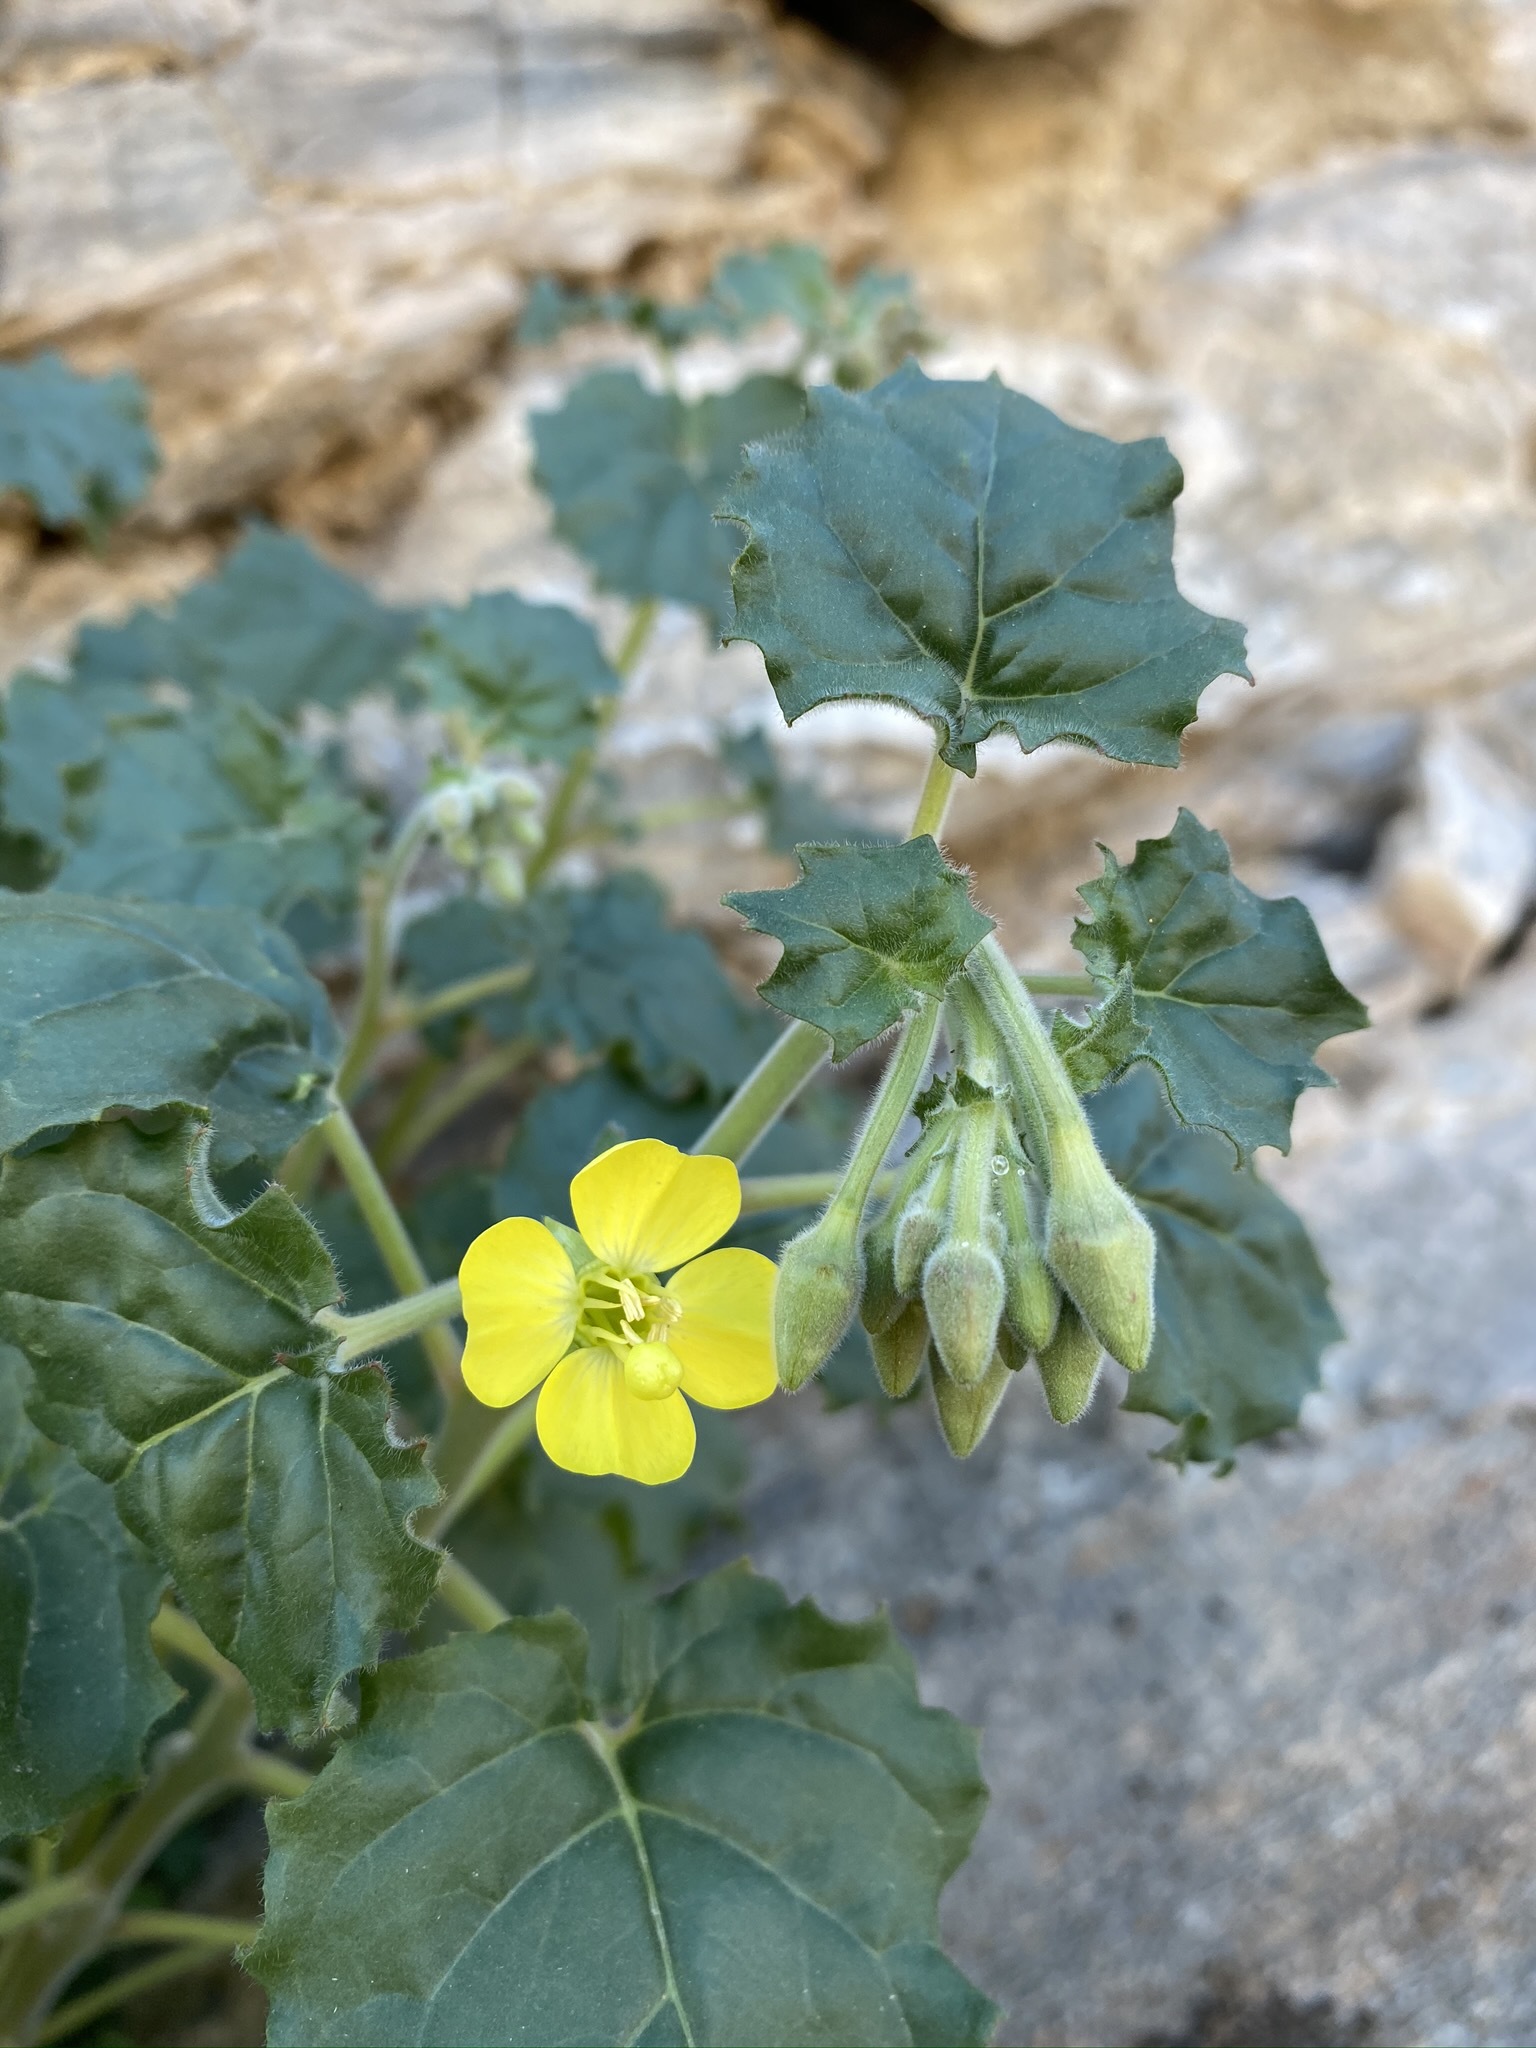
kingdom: Plantae
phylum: Tracheophyta
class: Magnoliopsida
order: Myrtales
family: Onagraceae
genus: Chylismia
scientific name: Chylismia cardiophylla
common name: Heartleaf suncup
